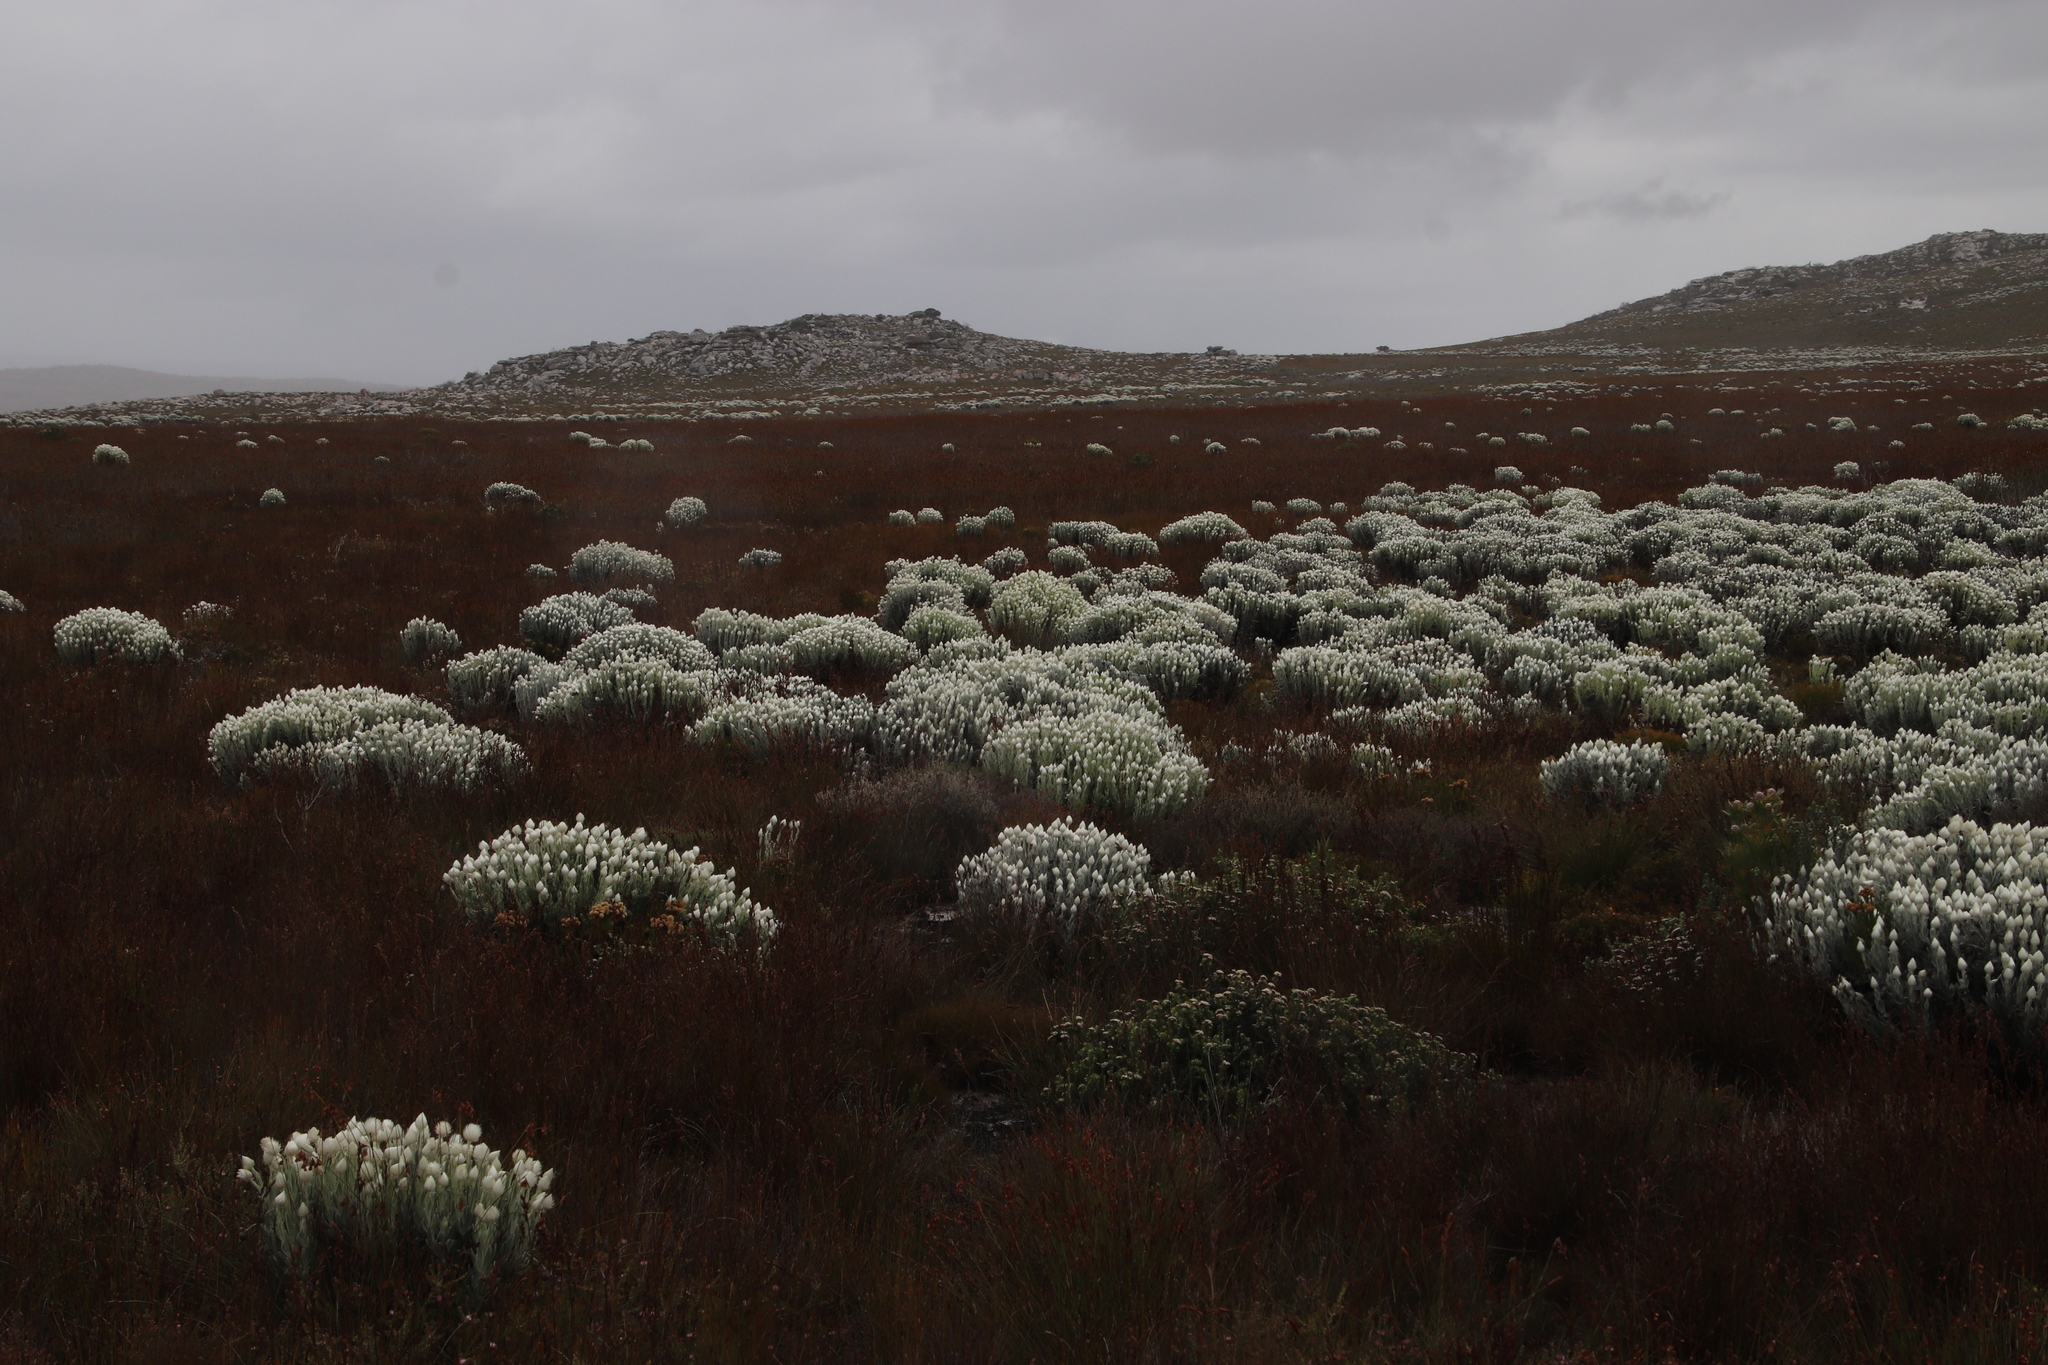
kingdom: Plantae
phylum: Tracheophyta
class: Magnoliopsida
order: Asterales
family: Asteraceae
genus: Syncarpha
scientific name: Syncarpha vestita
